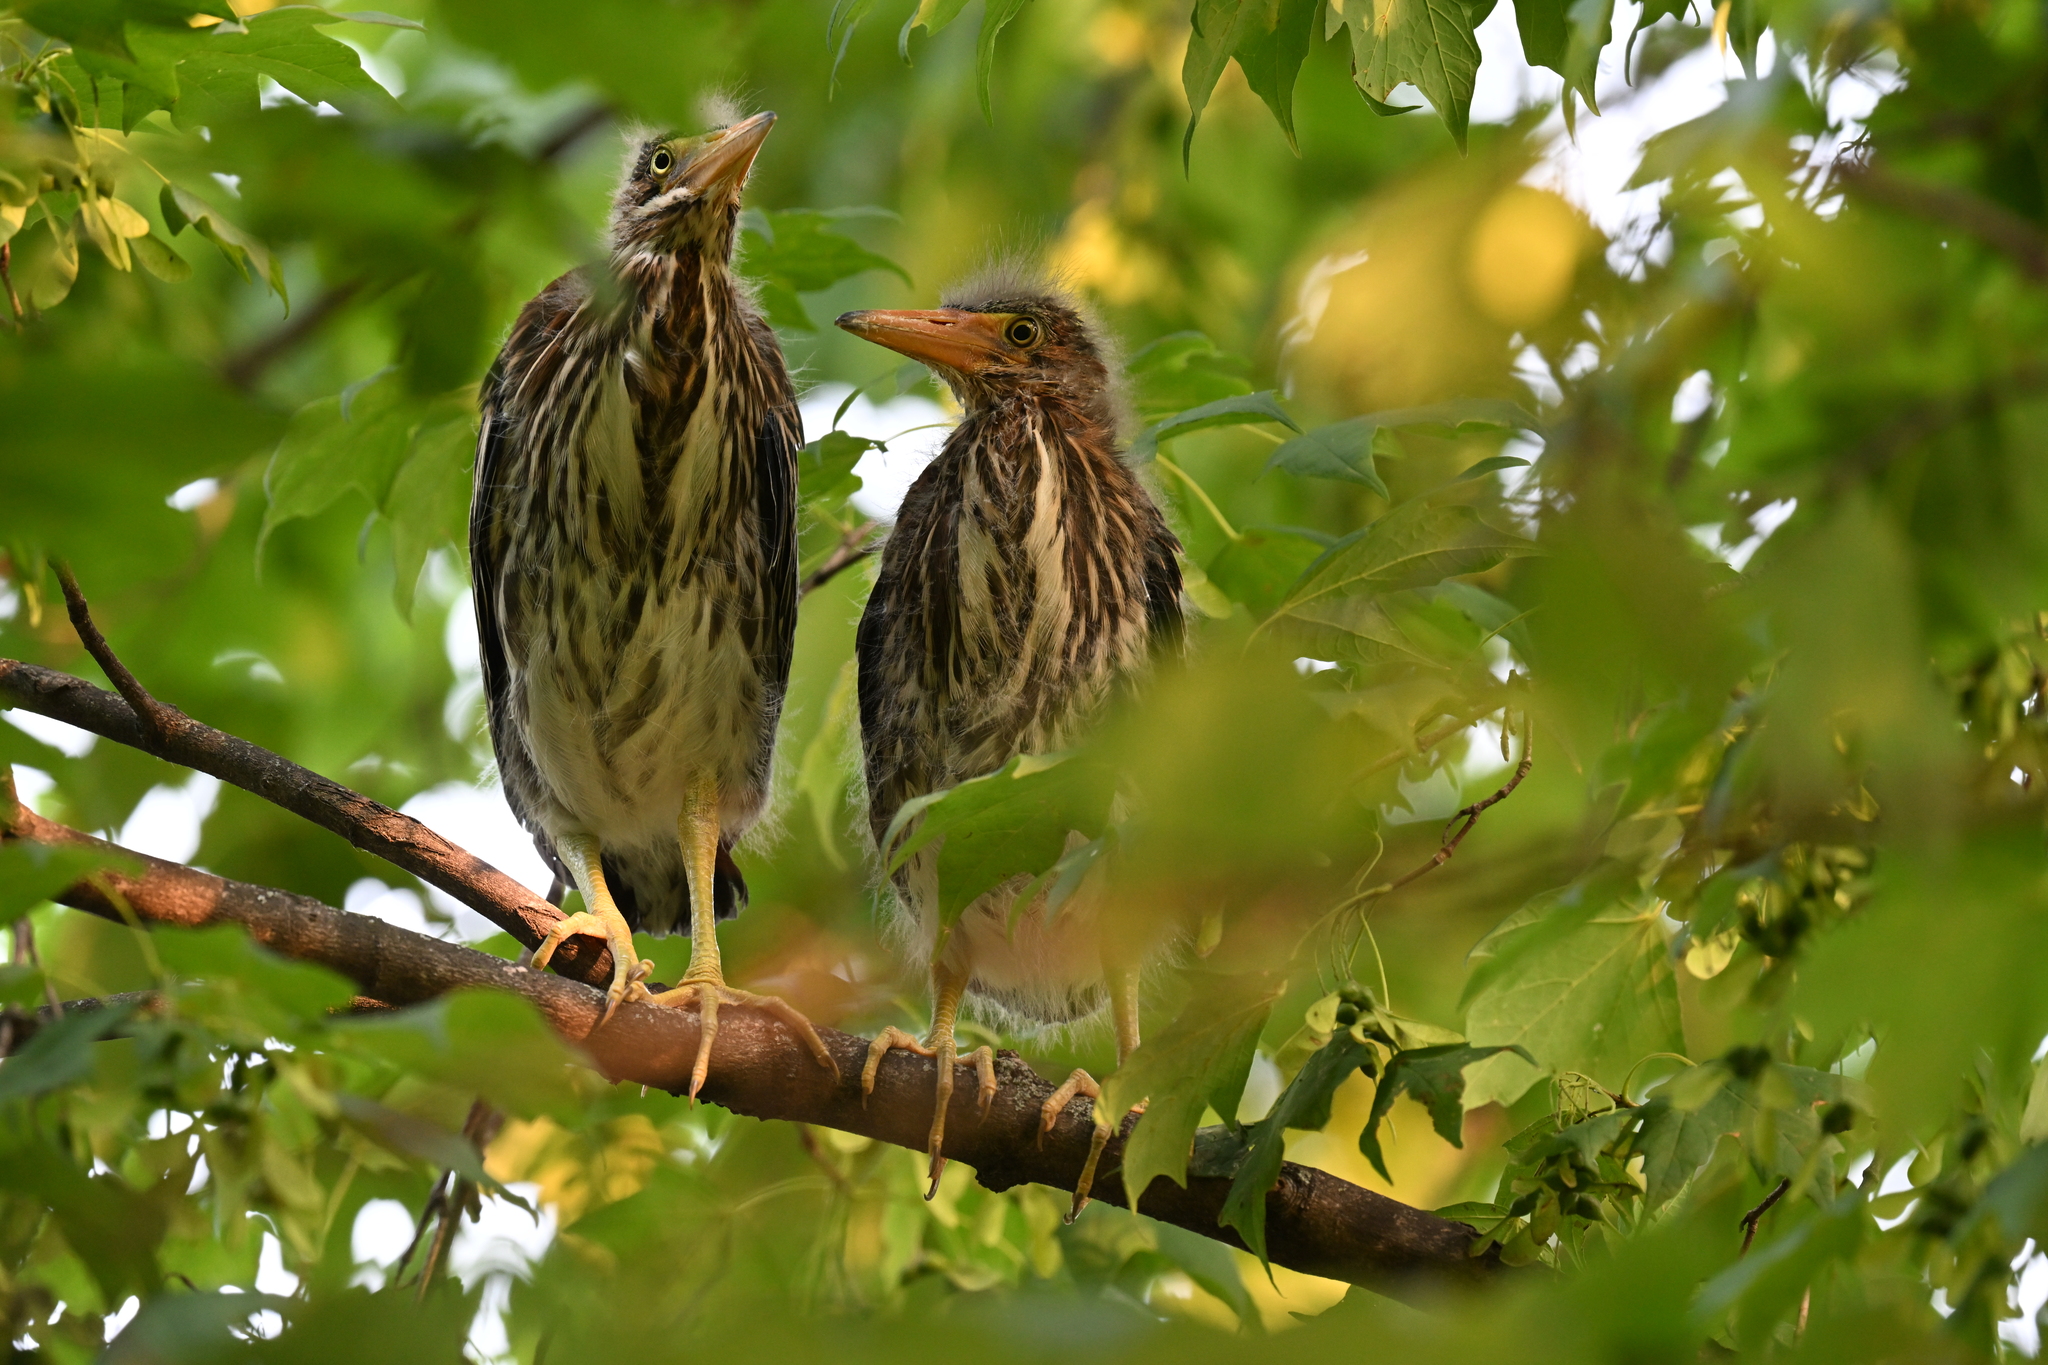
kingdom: Animalia
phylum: Chordata
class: Aves
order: Pelecaniformes
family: Ardeidae
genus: Butorides
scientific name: Butorides virescens
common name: Green heron
